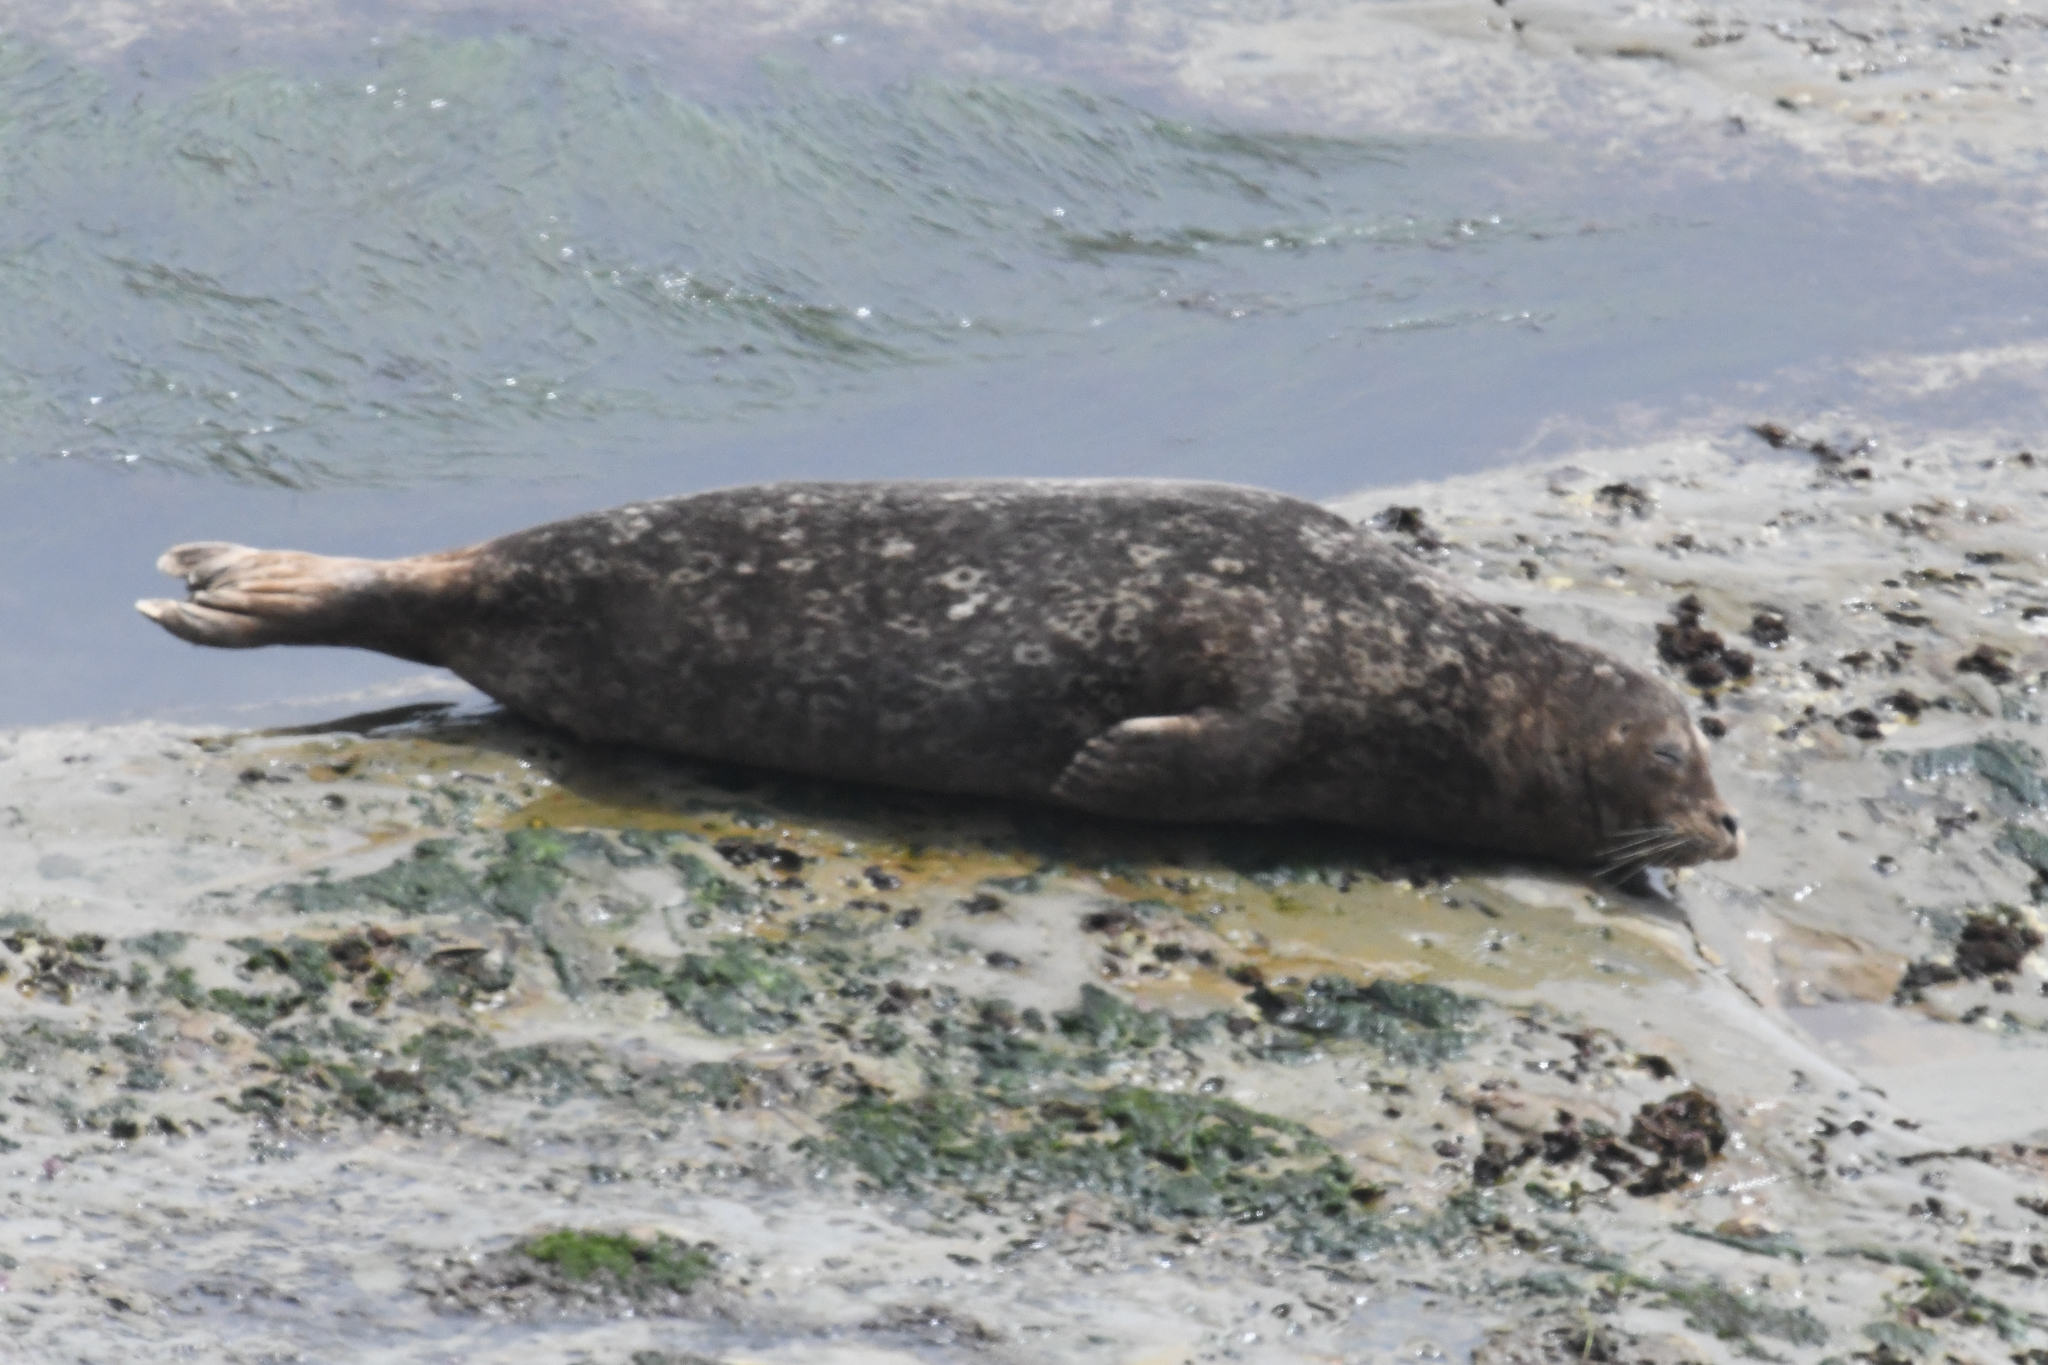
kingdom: Animalia
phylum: Chordata
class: Mammalia
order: Carnivora
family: Phocidae
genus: Phoca
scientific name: Phoca vitulina
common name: Harbor seal
